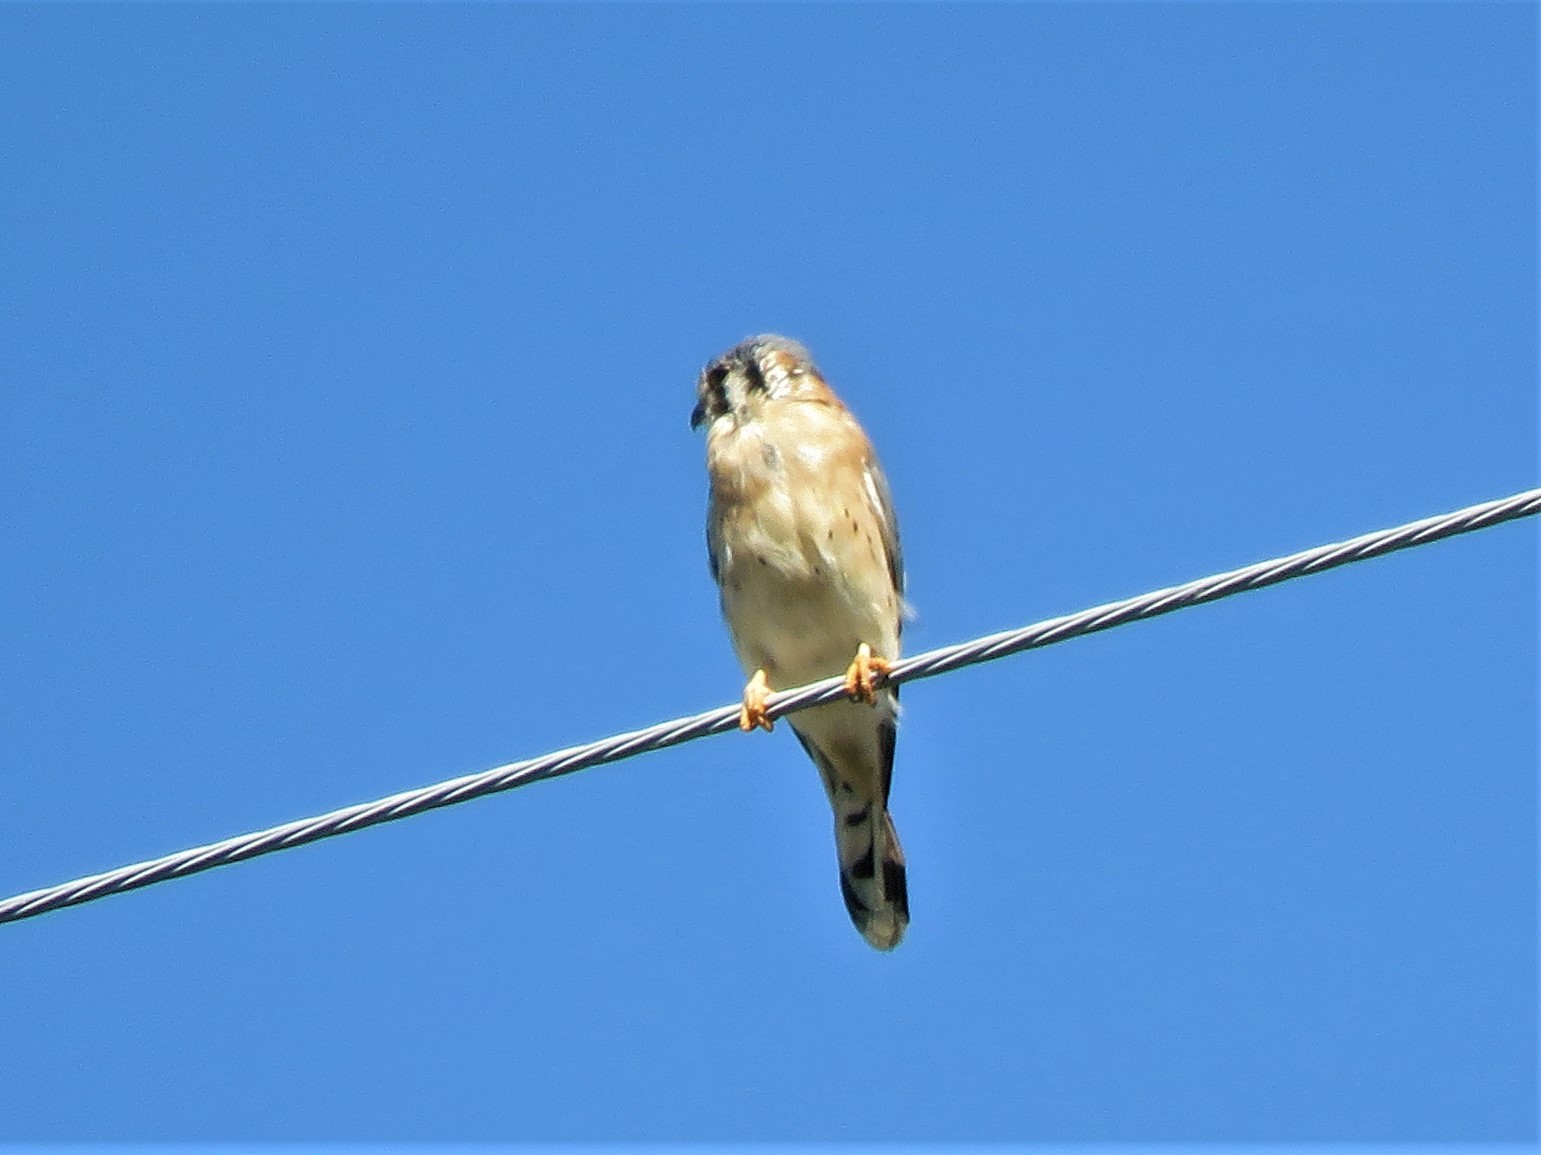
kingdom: Animalia
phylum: Chordata
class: Aves
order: Falconiformes
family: Falconidae
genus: Falco
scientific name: Falco sparverius
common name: American kestrel
